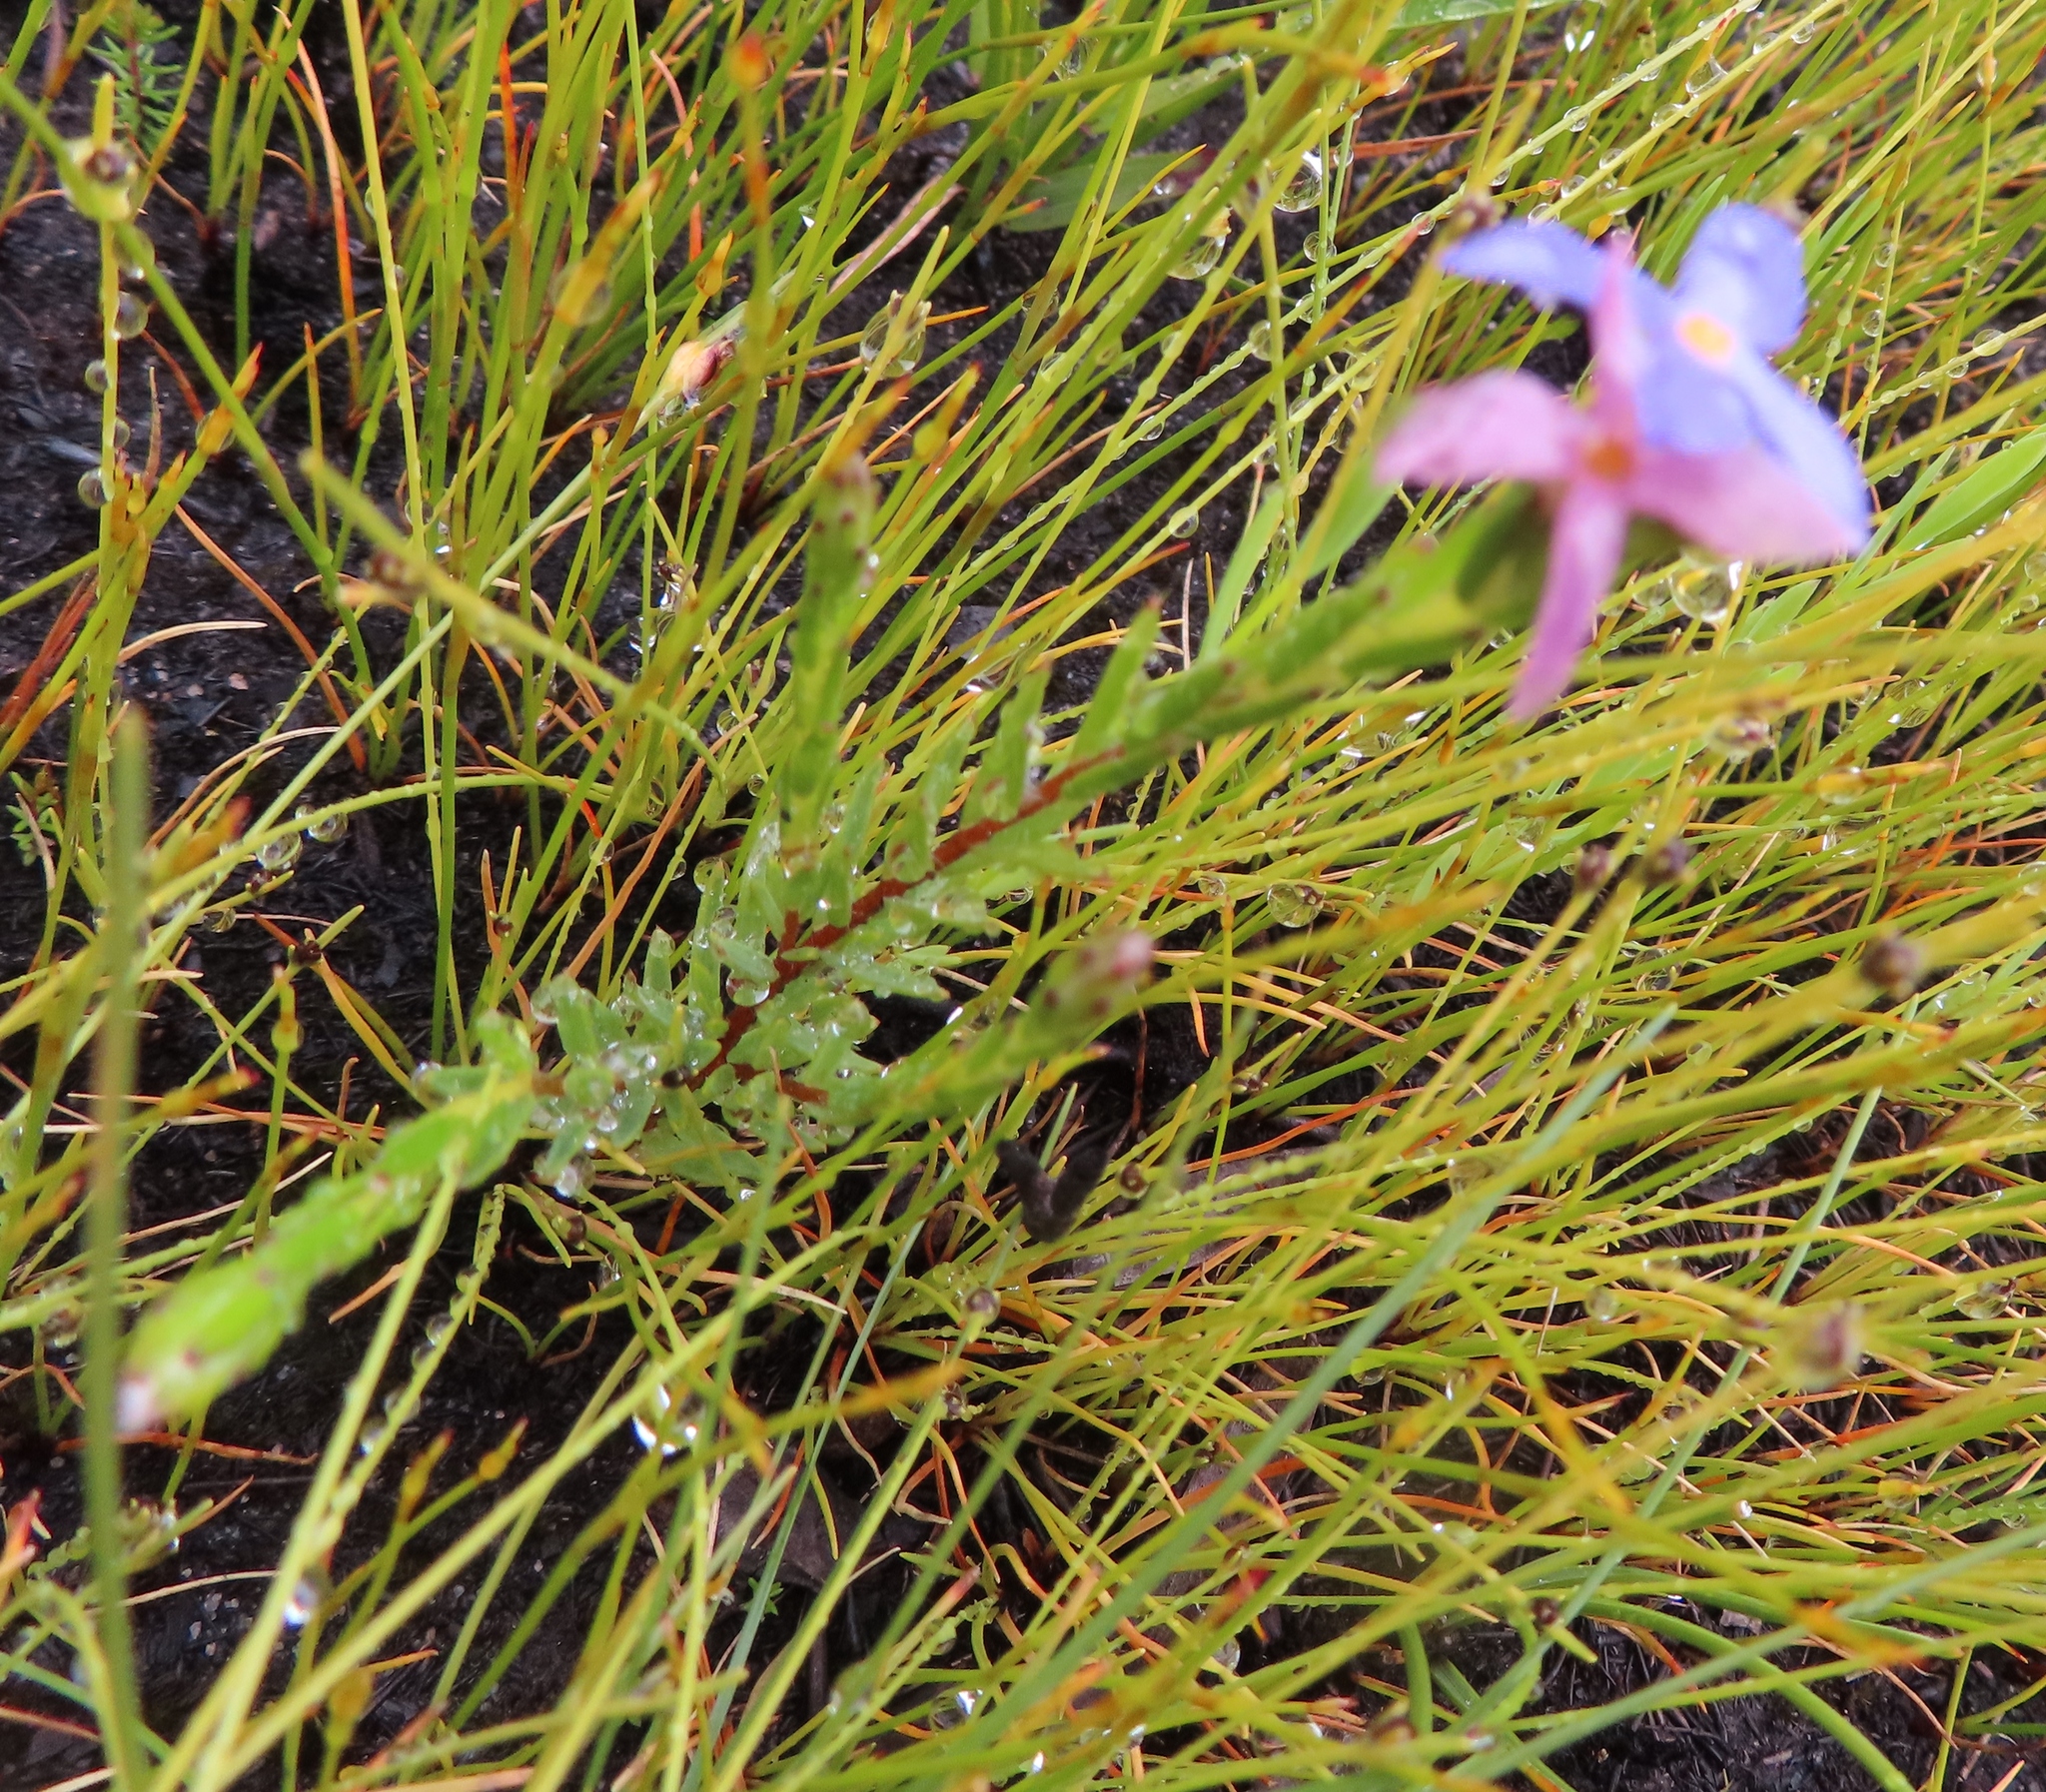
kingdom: Plantae
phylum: Tracheophyta
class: Magnoliopsida
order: Malvales
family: Thymelaeaceae
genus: Gnidia
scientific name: Gnidia penicillata
